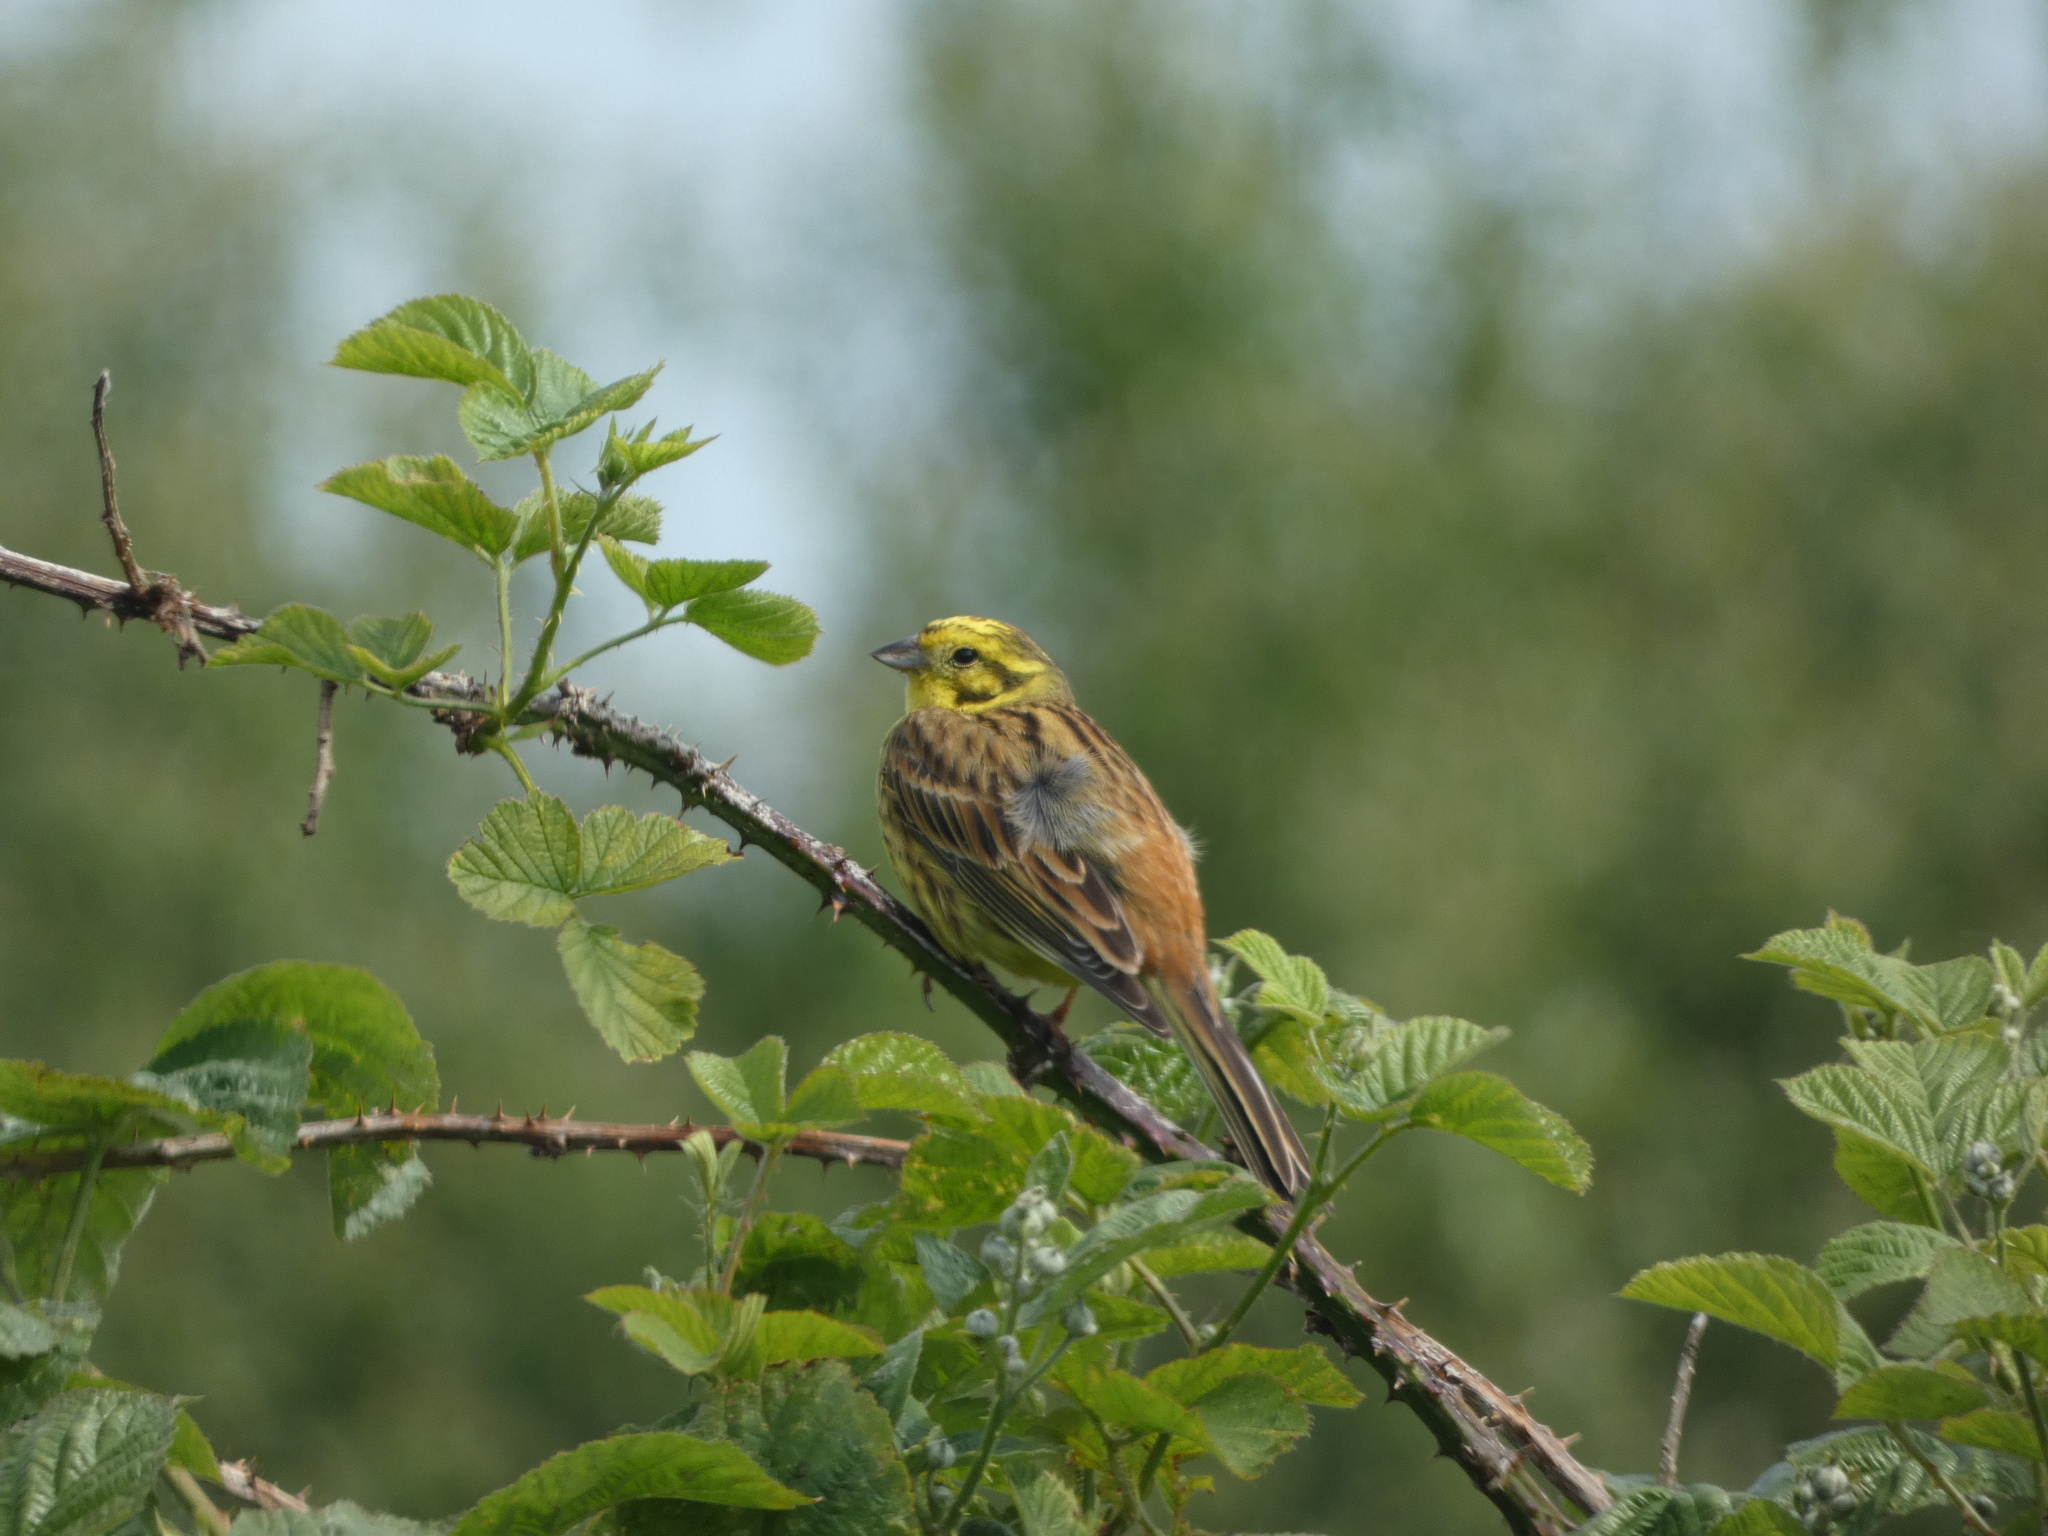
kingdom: Animalia
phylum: Chordata
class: Aves
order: Passeriformes
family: Emberizidae
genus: Emberiza
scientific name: Emberiza citrinella
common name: Yellowhammer
